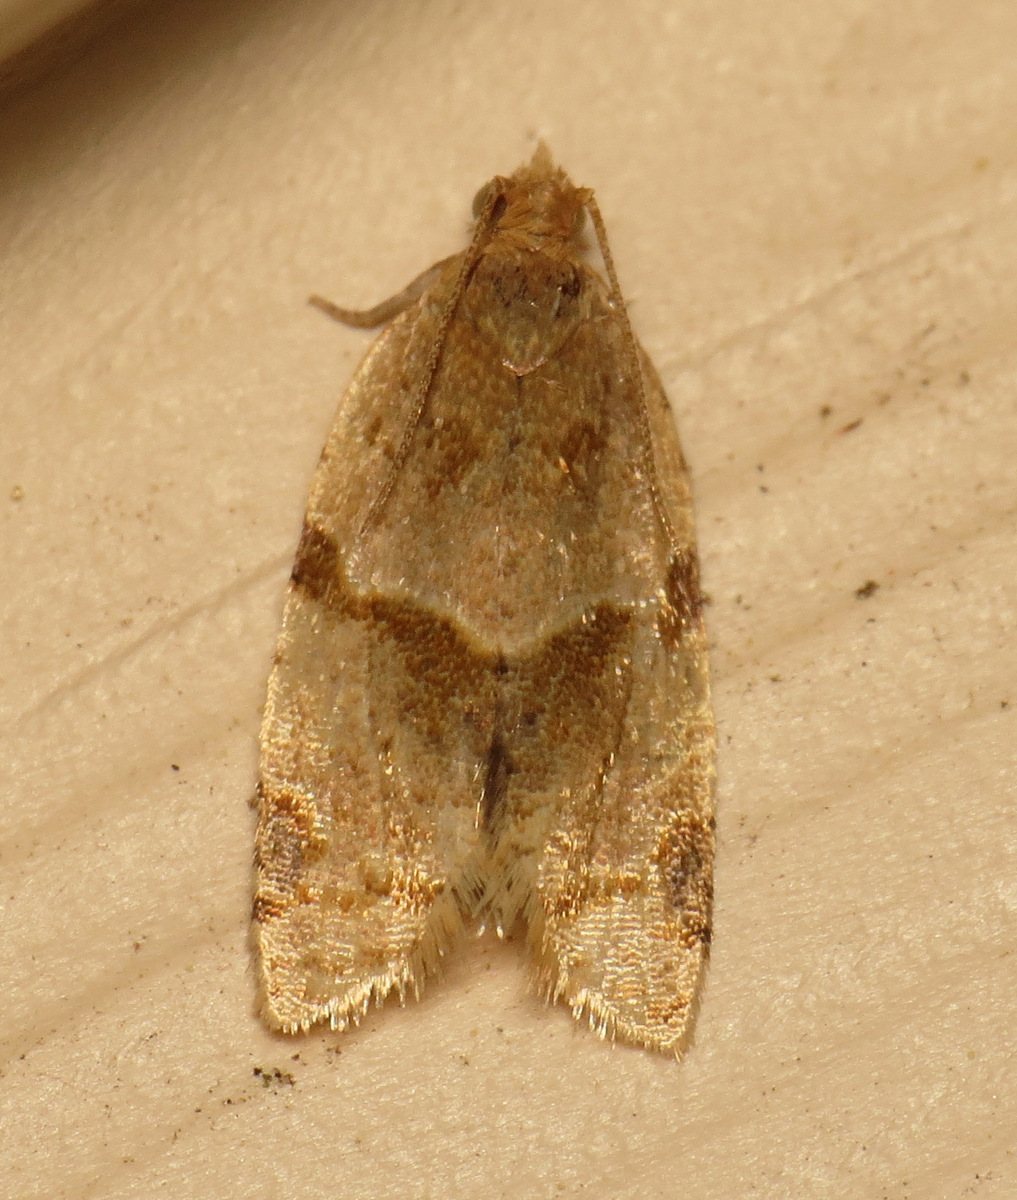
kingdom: Animalia
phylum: Arthropoda
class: Insecta
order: Lepidoptera
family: Tortricidae
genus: Clepsis
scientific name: Clepsis
